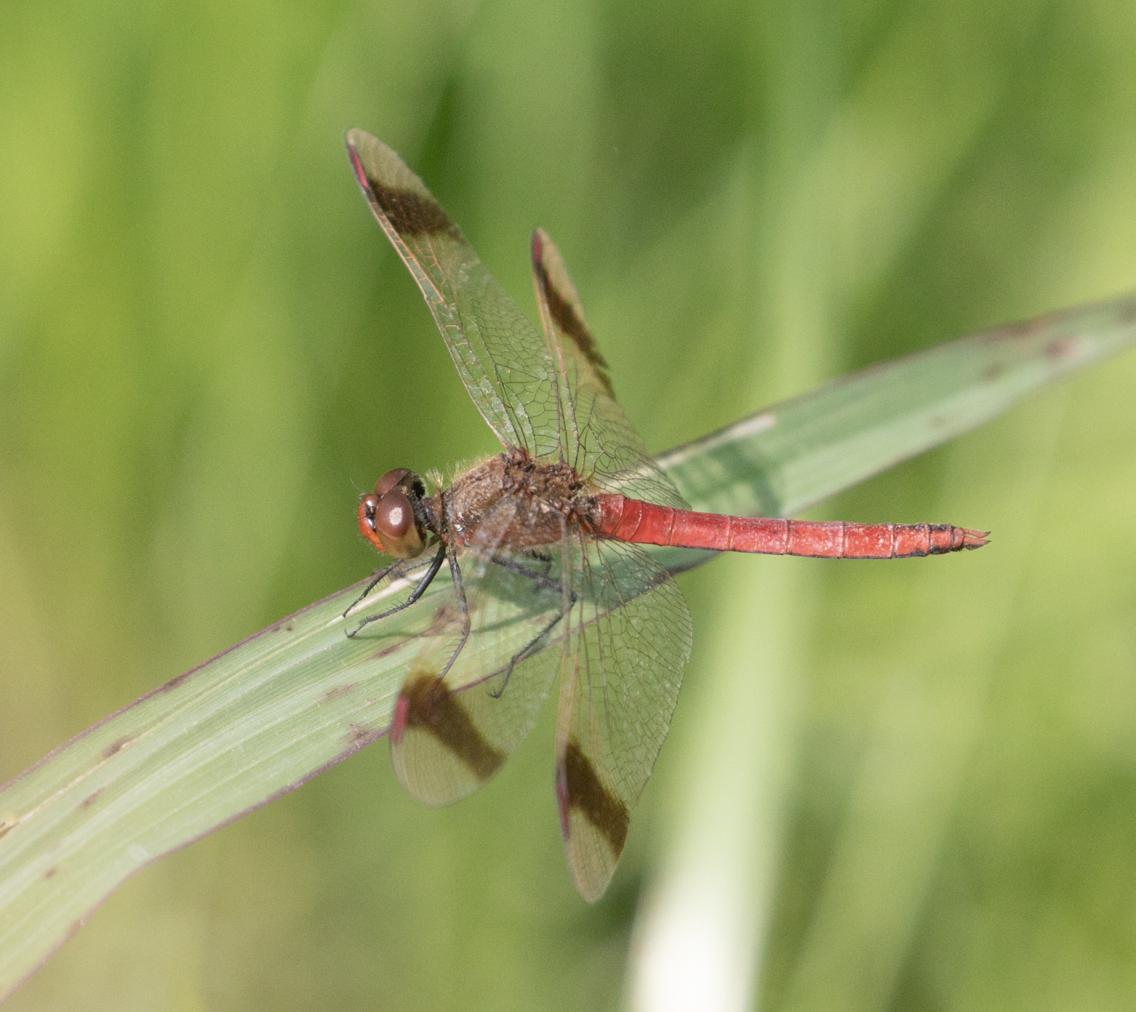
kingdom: Animalia
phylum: Arthropoda
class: Insecta
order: Odonata
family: Libellulidae
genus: Sympetrum
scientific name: Sympetrum pedemontanum
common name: Banded darter
